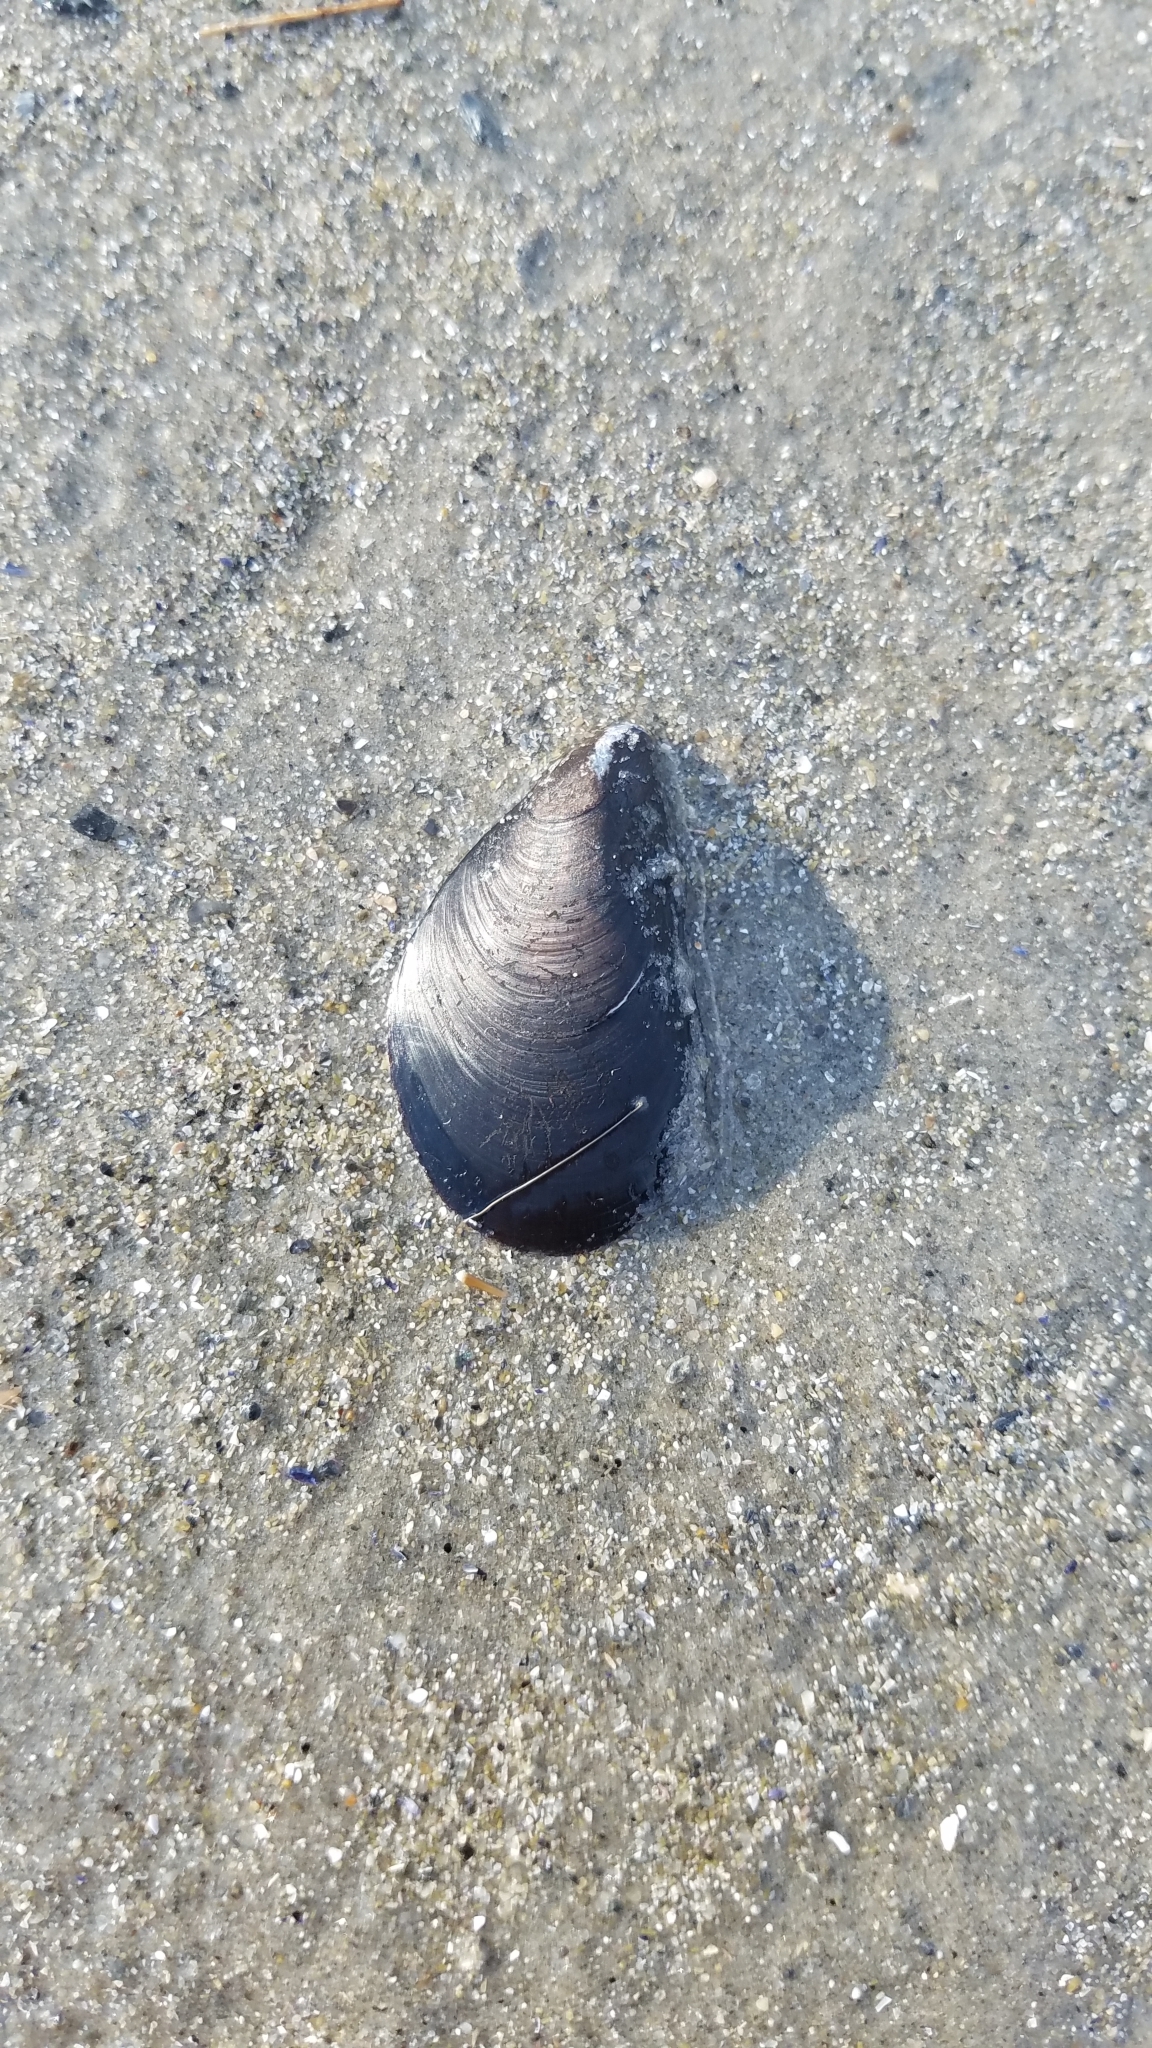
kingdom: Animalia
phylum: Mollusca
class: Bivalvia
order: Mytilida
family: Mytilidae
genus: Mytilus
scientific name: Mytilus edulis
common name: Blue mussel
